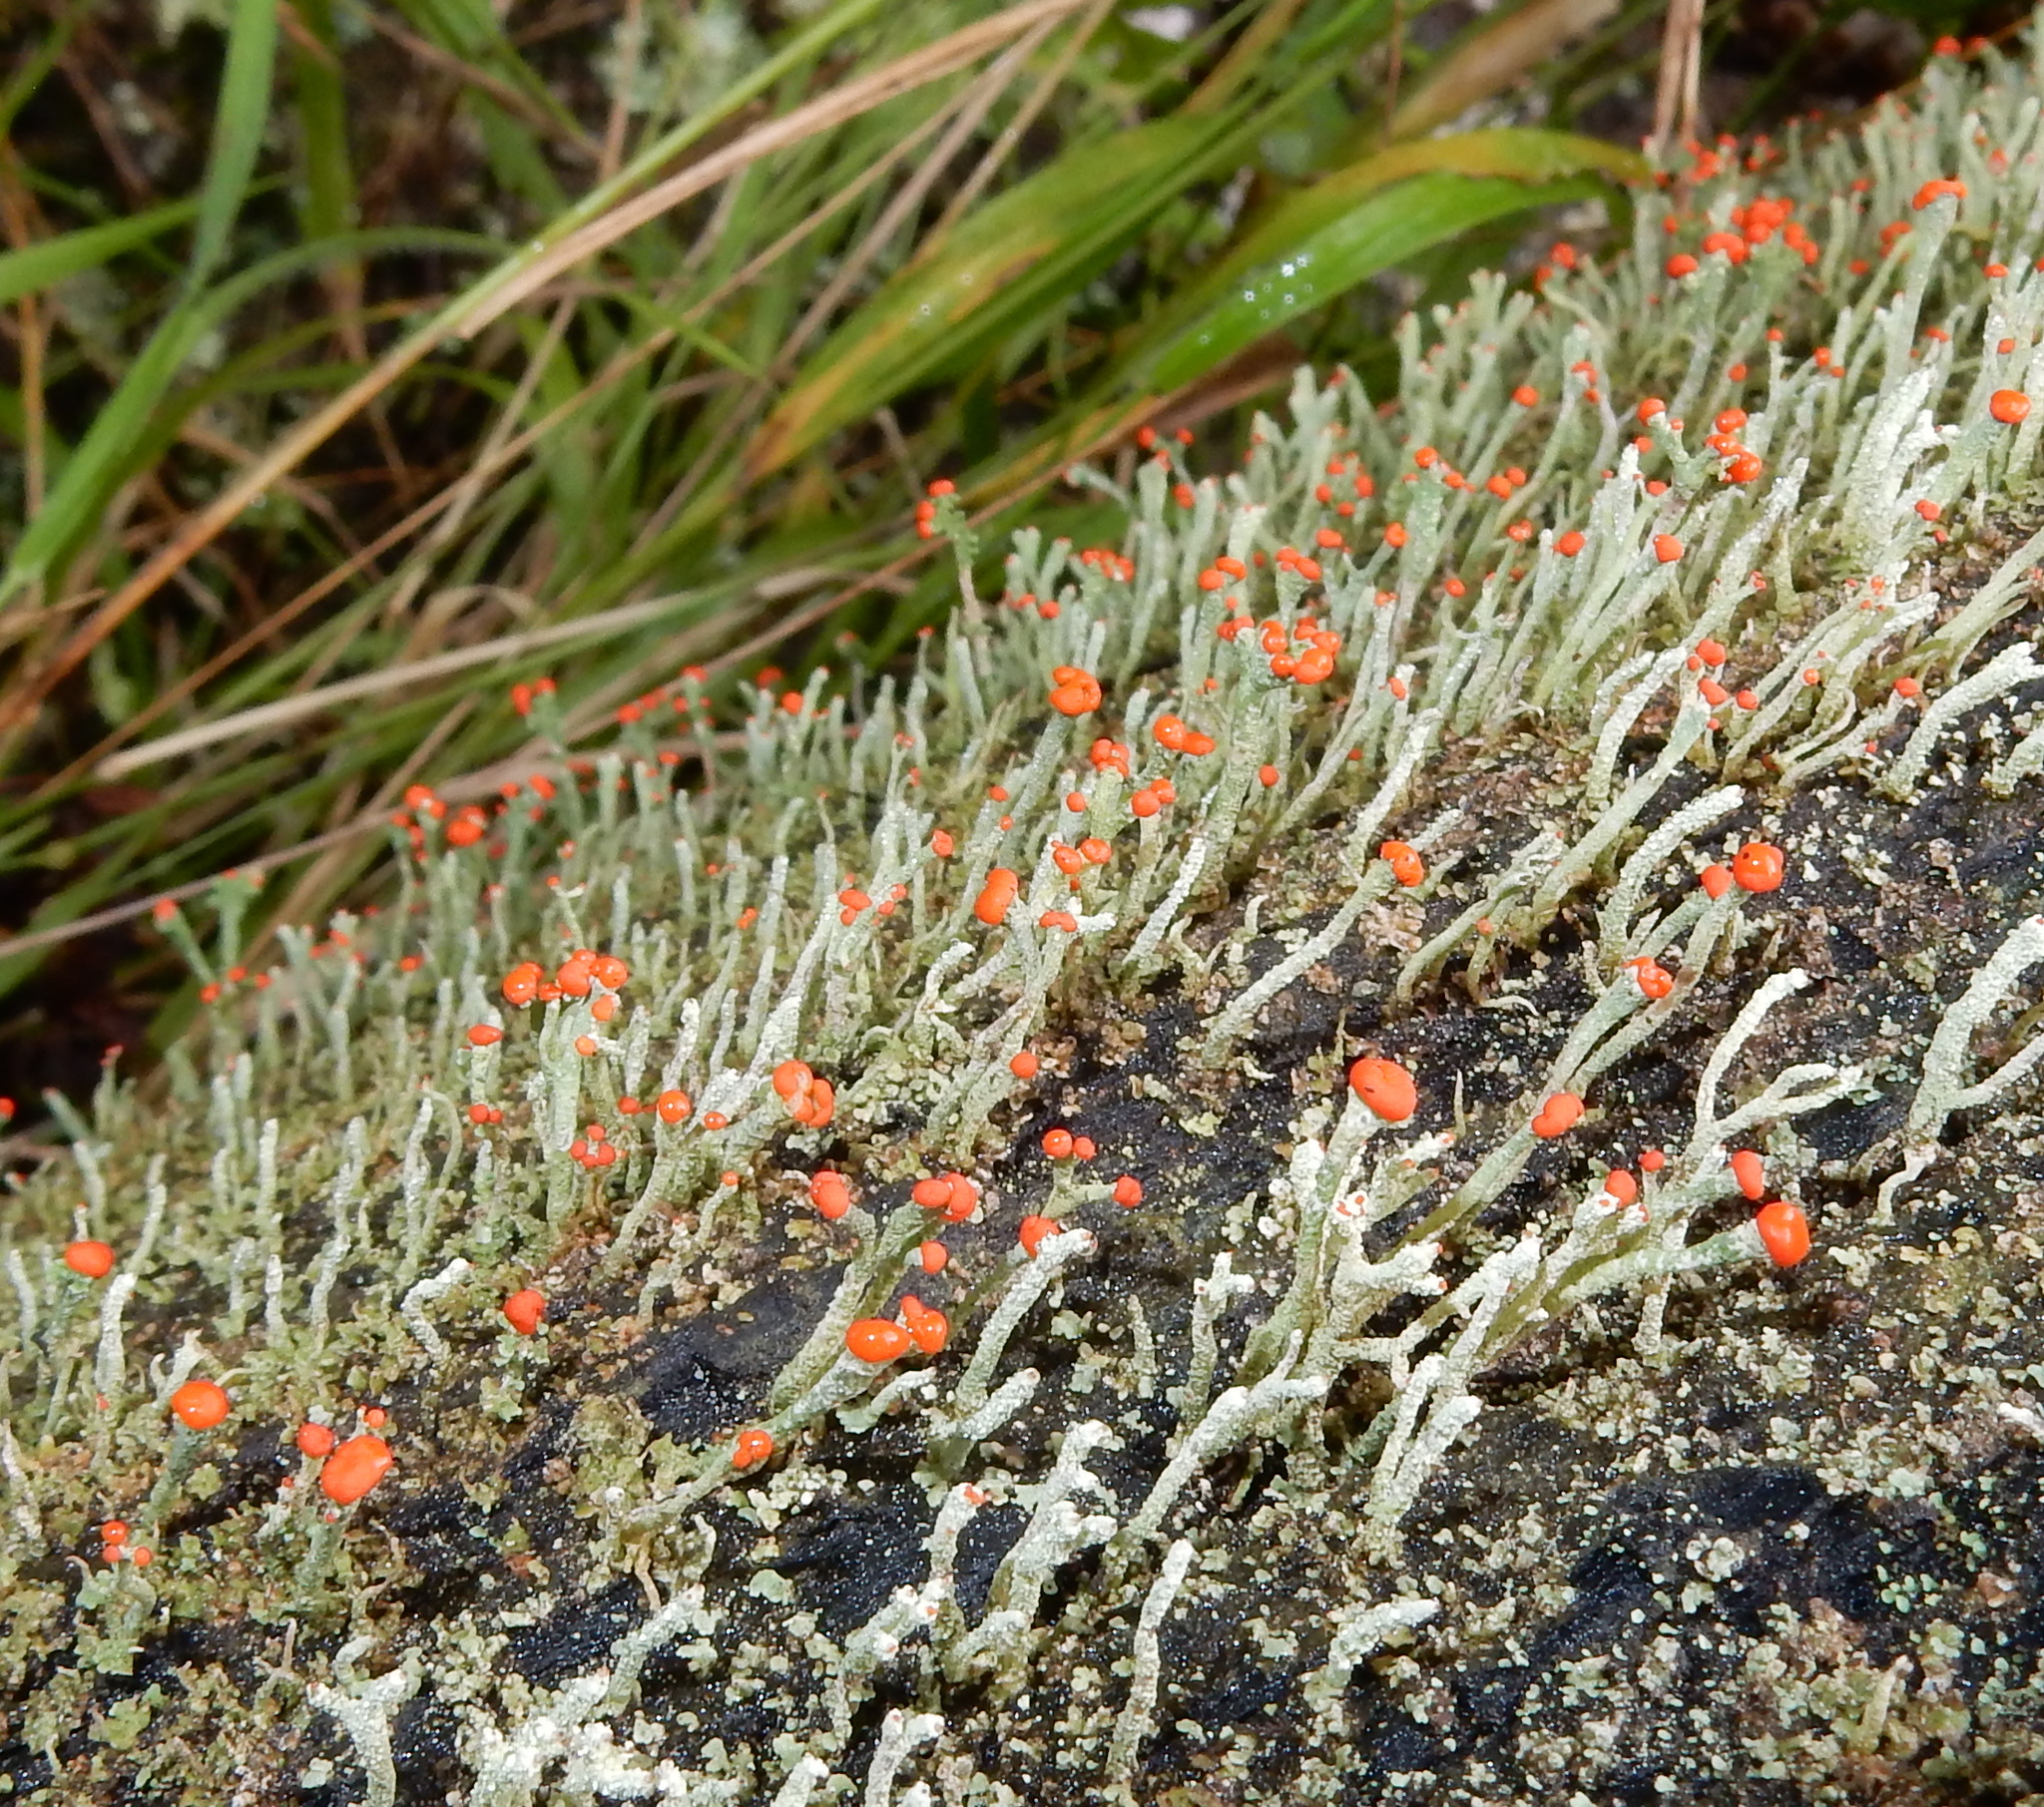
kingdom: Fungi
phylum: Ascomycota
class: Lecanoromycetes
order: Lecanorales
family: Cladoniaceae
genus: Cladonia
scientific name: Cladonia floerkeana
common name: Gritty british soldiers lichen
